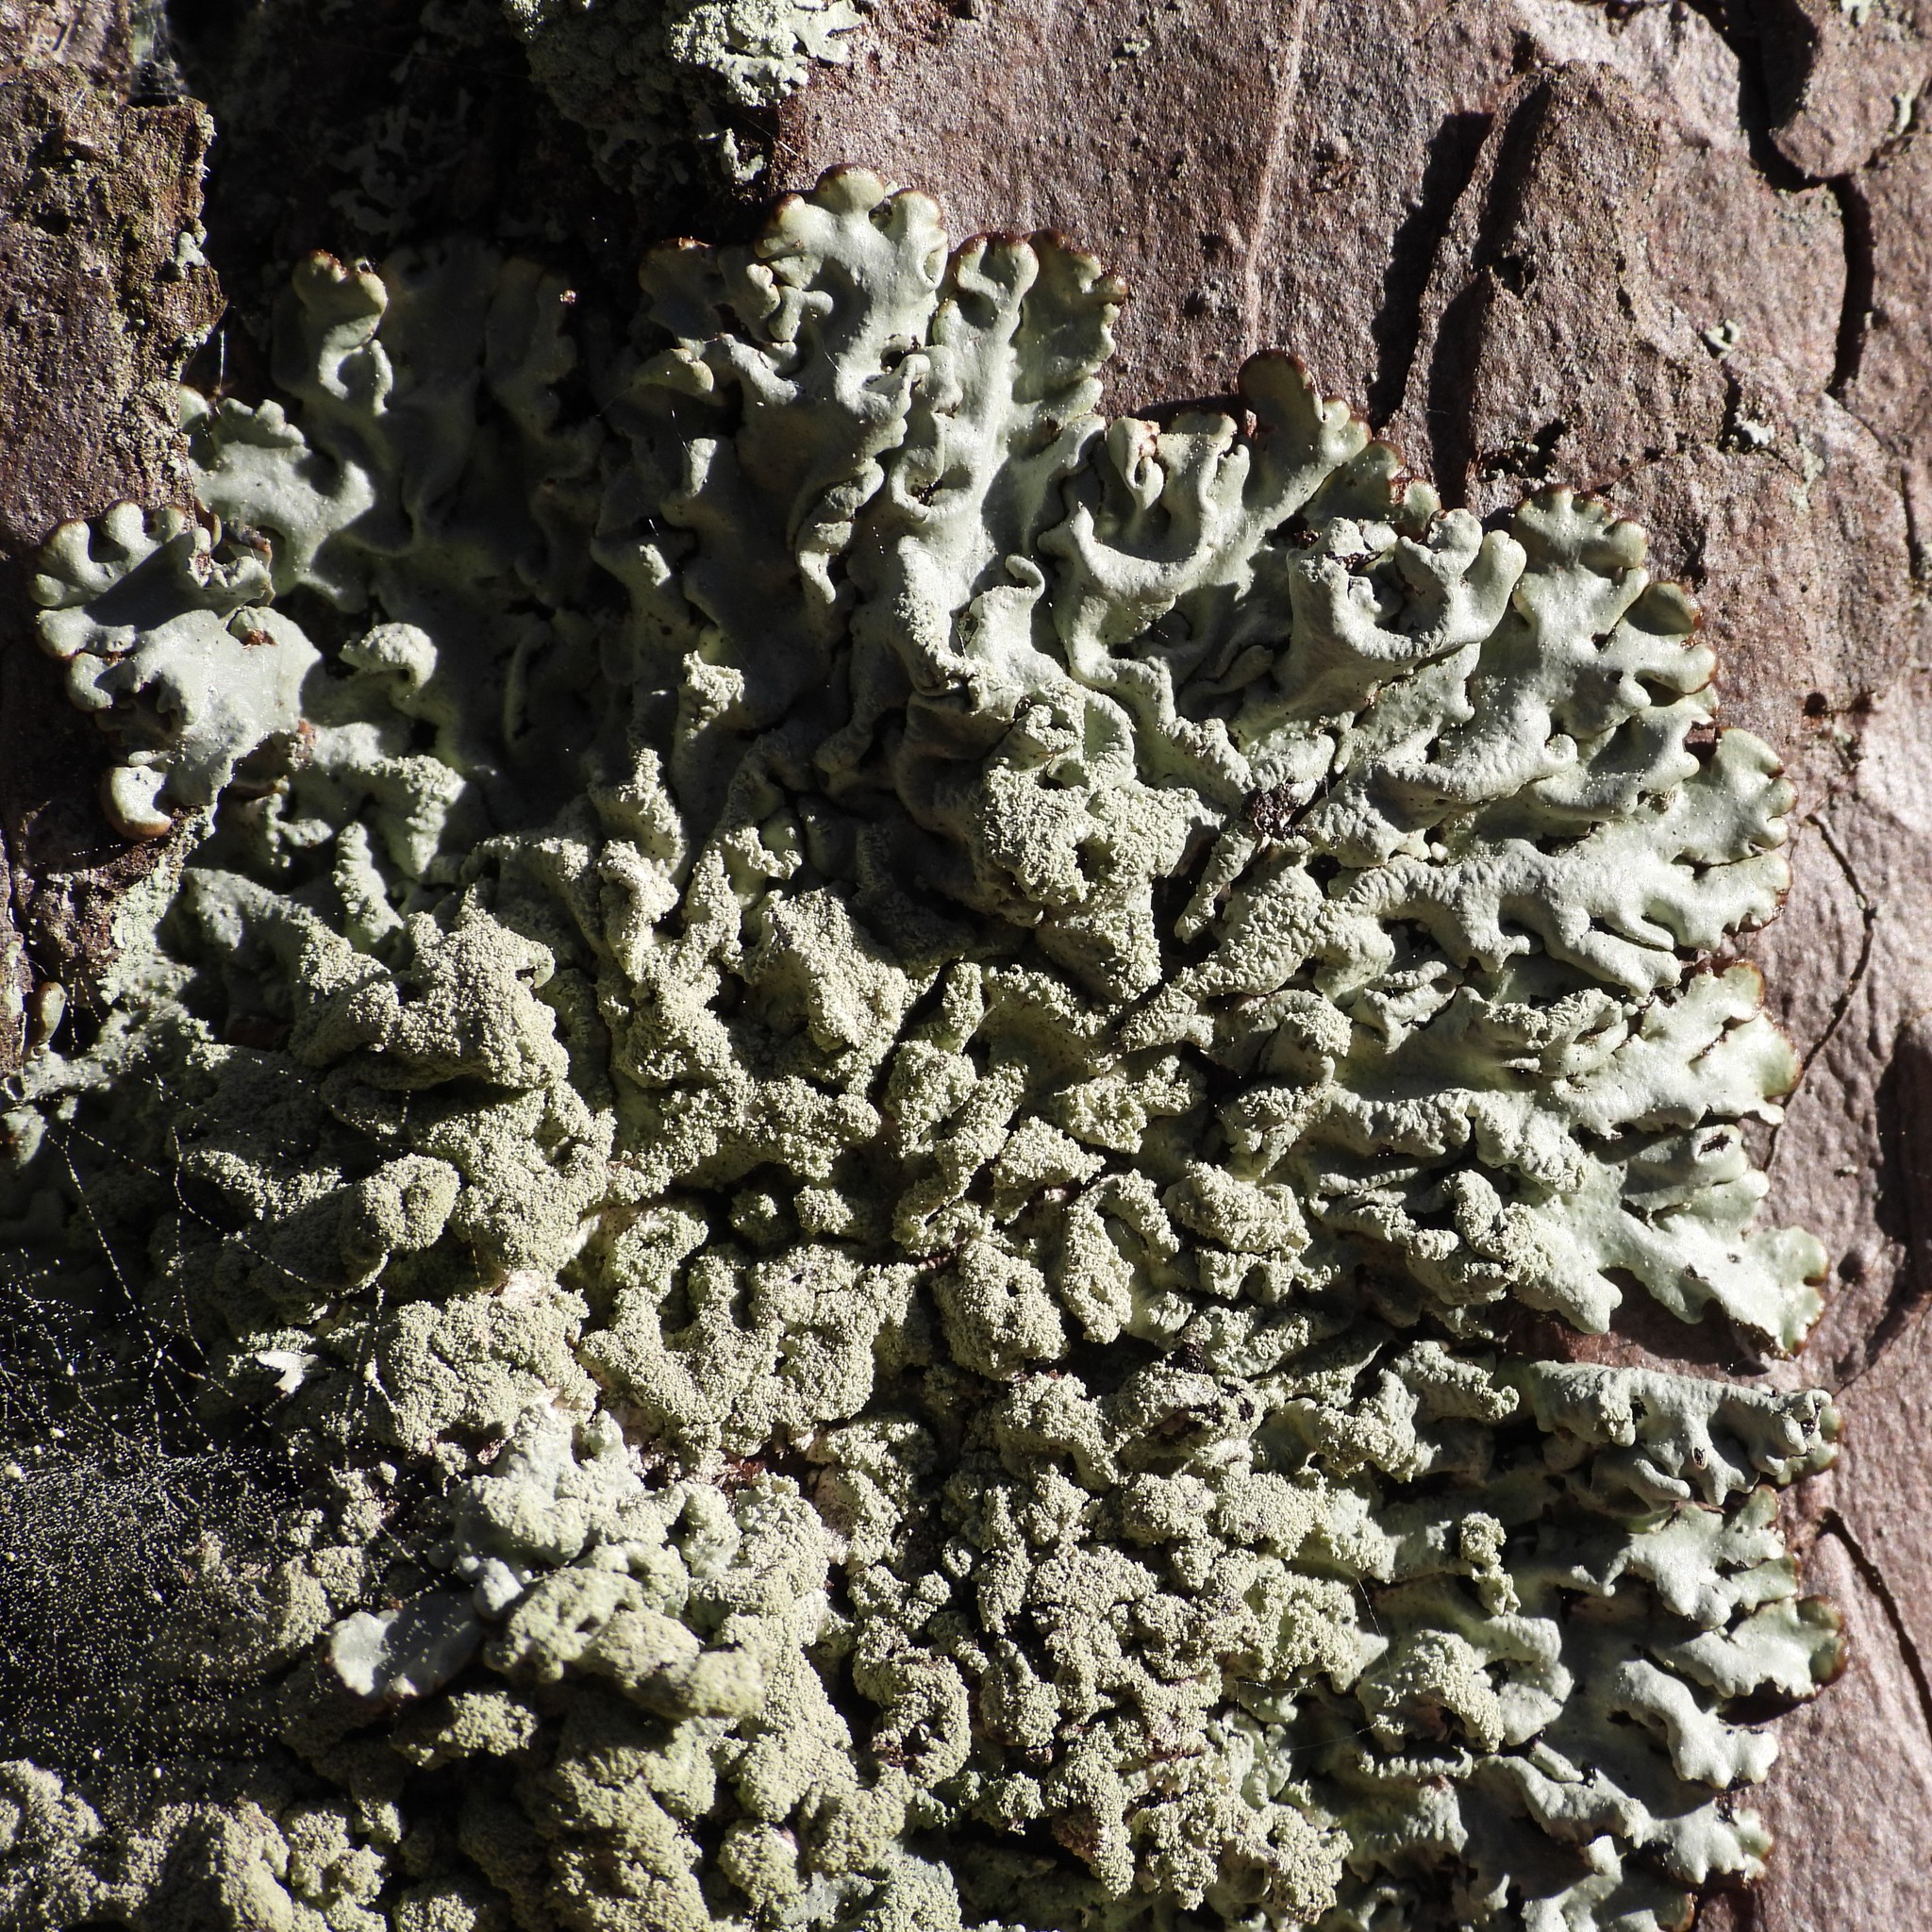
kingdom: Fungi
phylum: Ascomycota
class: Lecanoromycetes
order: Lecanorales
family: Parmeliaceae
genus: Hypogymnia
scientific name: Hypogymnia farinacea
